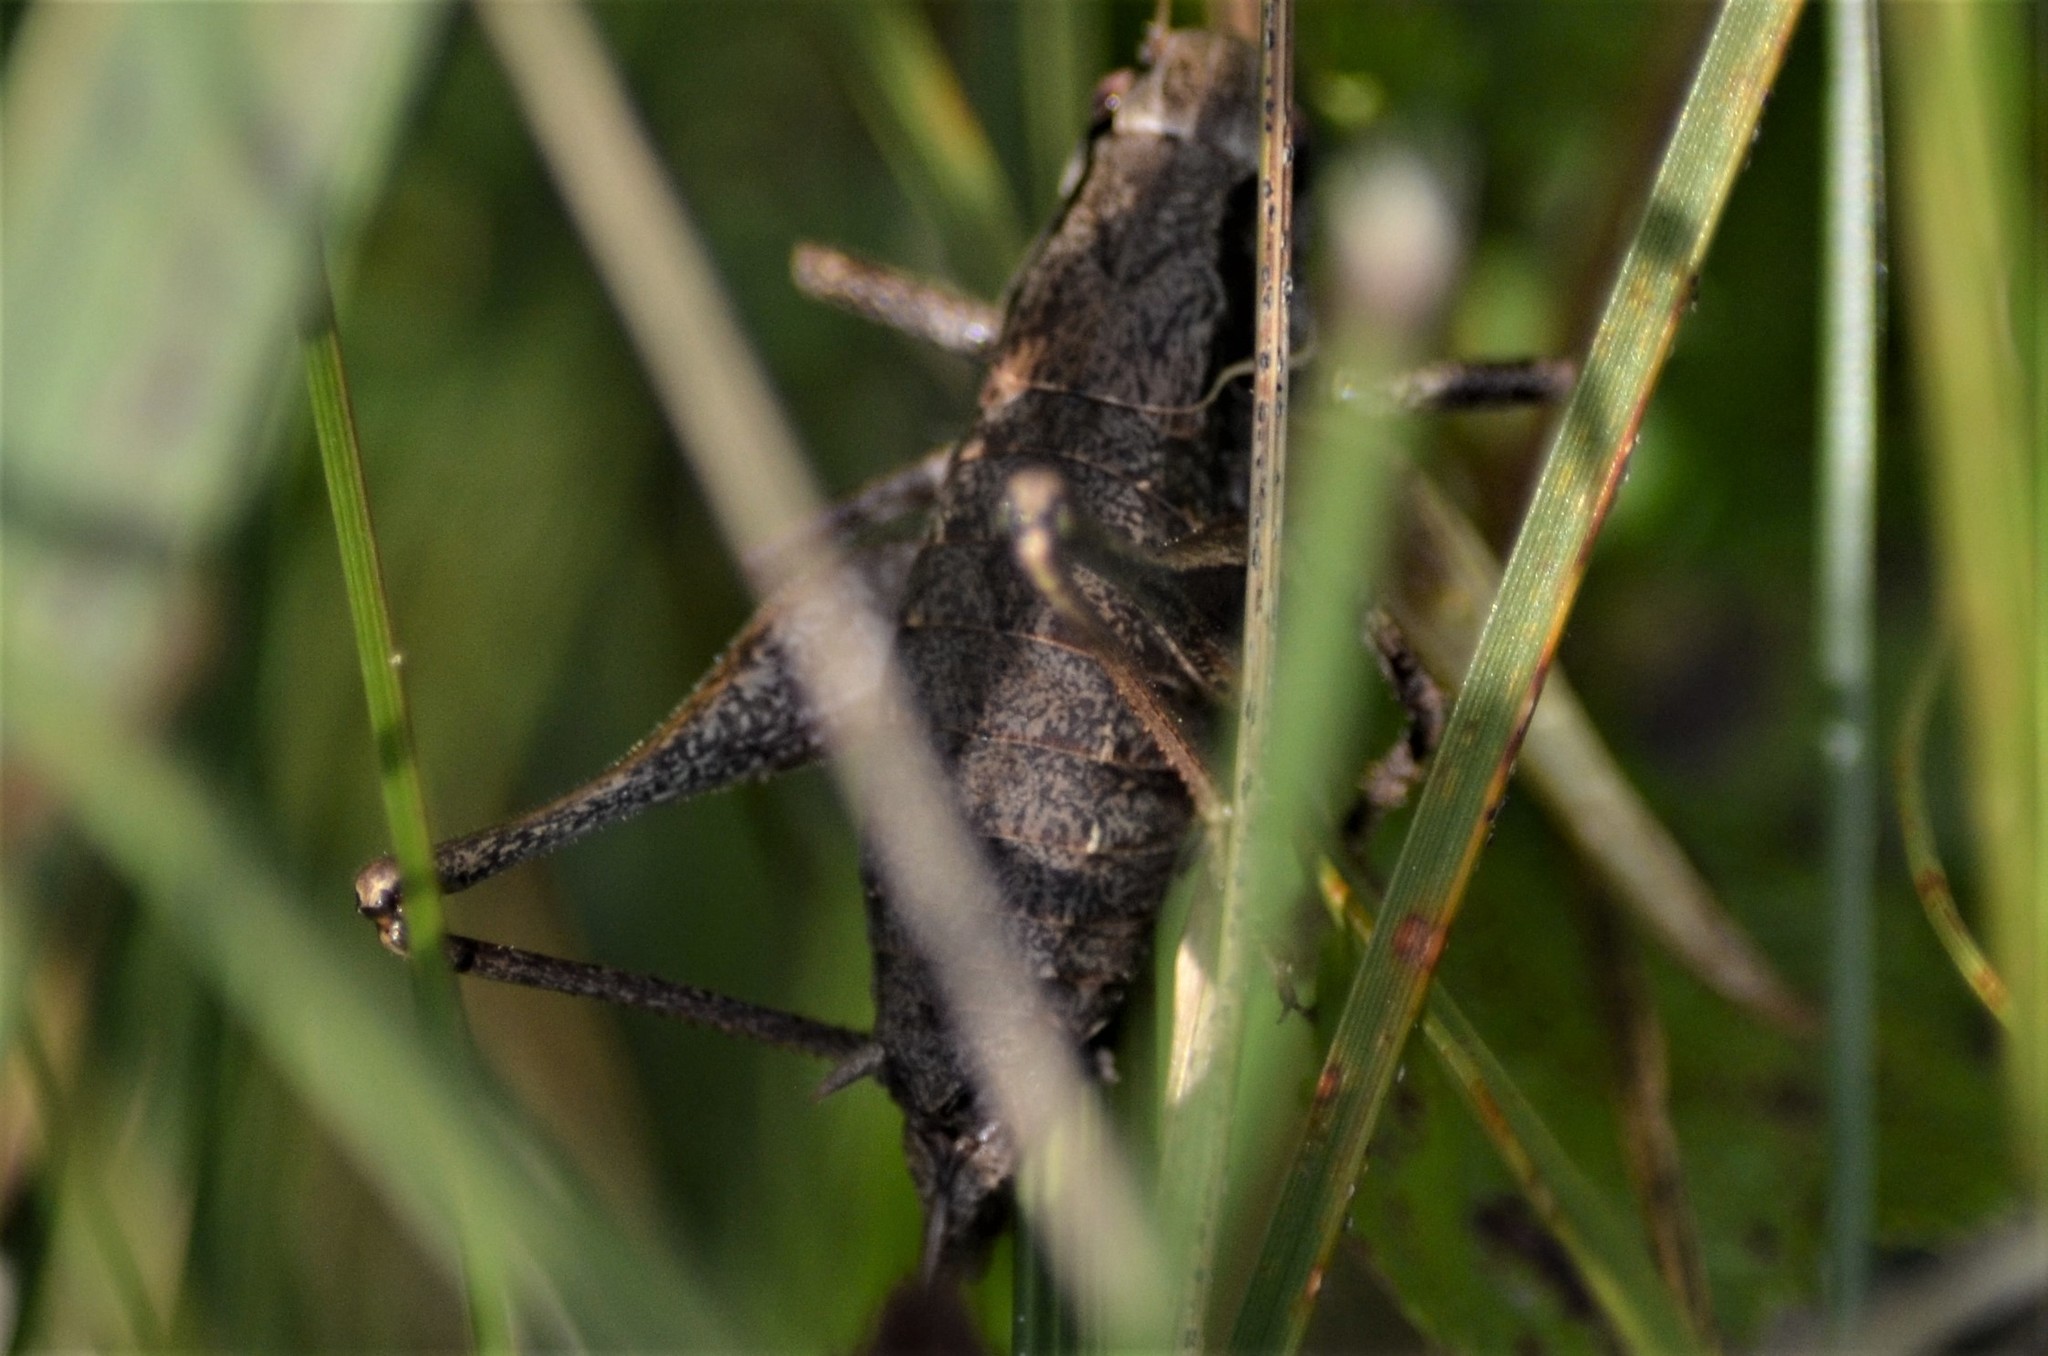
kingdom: Animalia
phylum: Arthropoda
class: Insecta
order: Orthoptera
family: Tettigoniidae
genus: Pholidoptera
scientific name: Pholidoptera griseoaptera
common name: Dark bush-cricket
